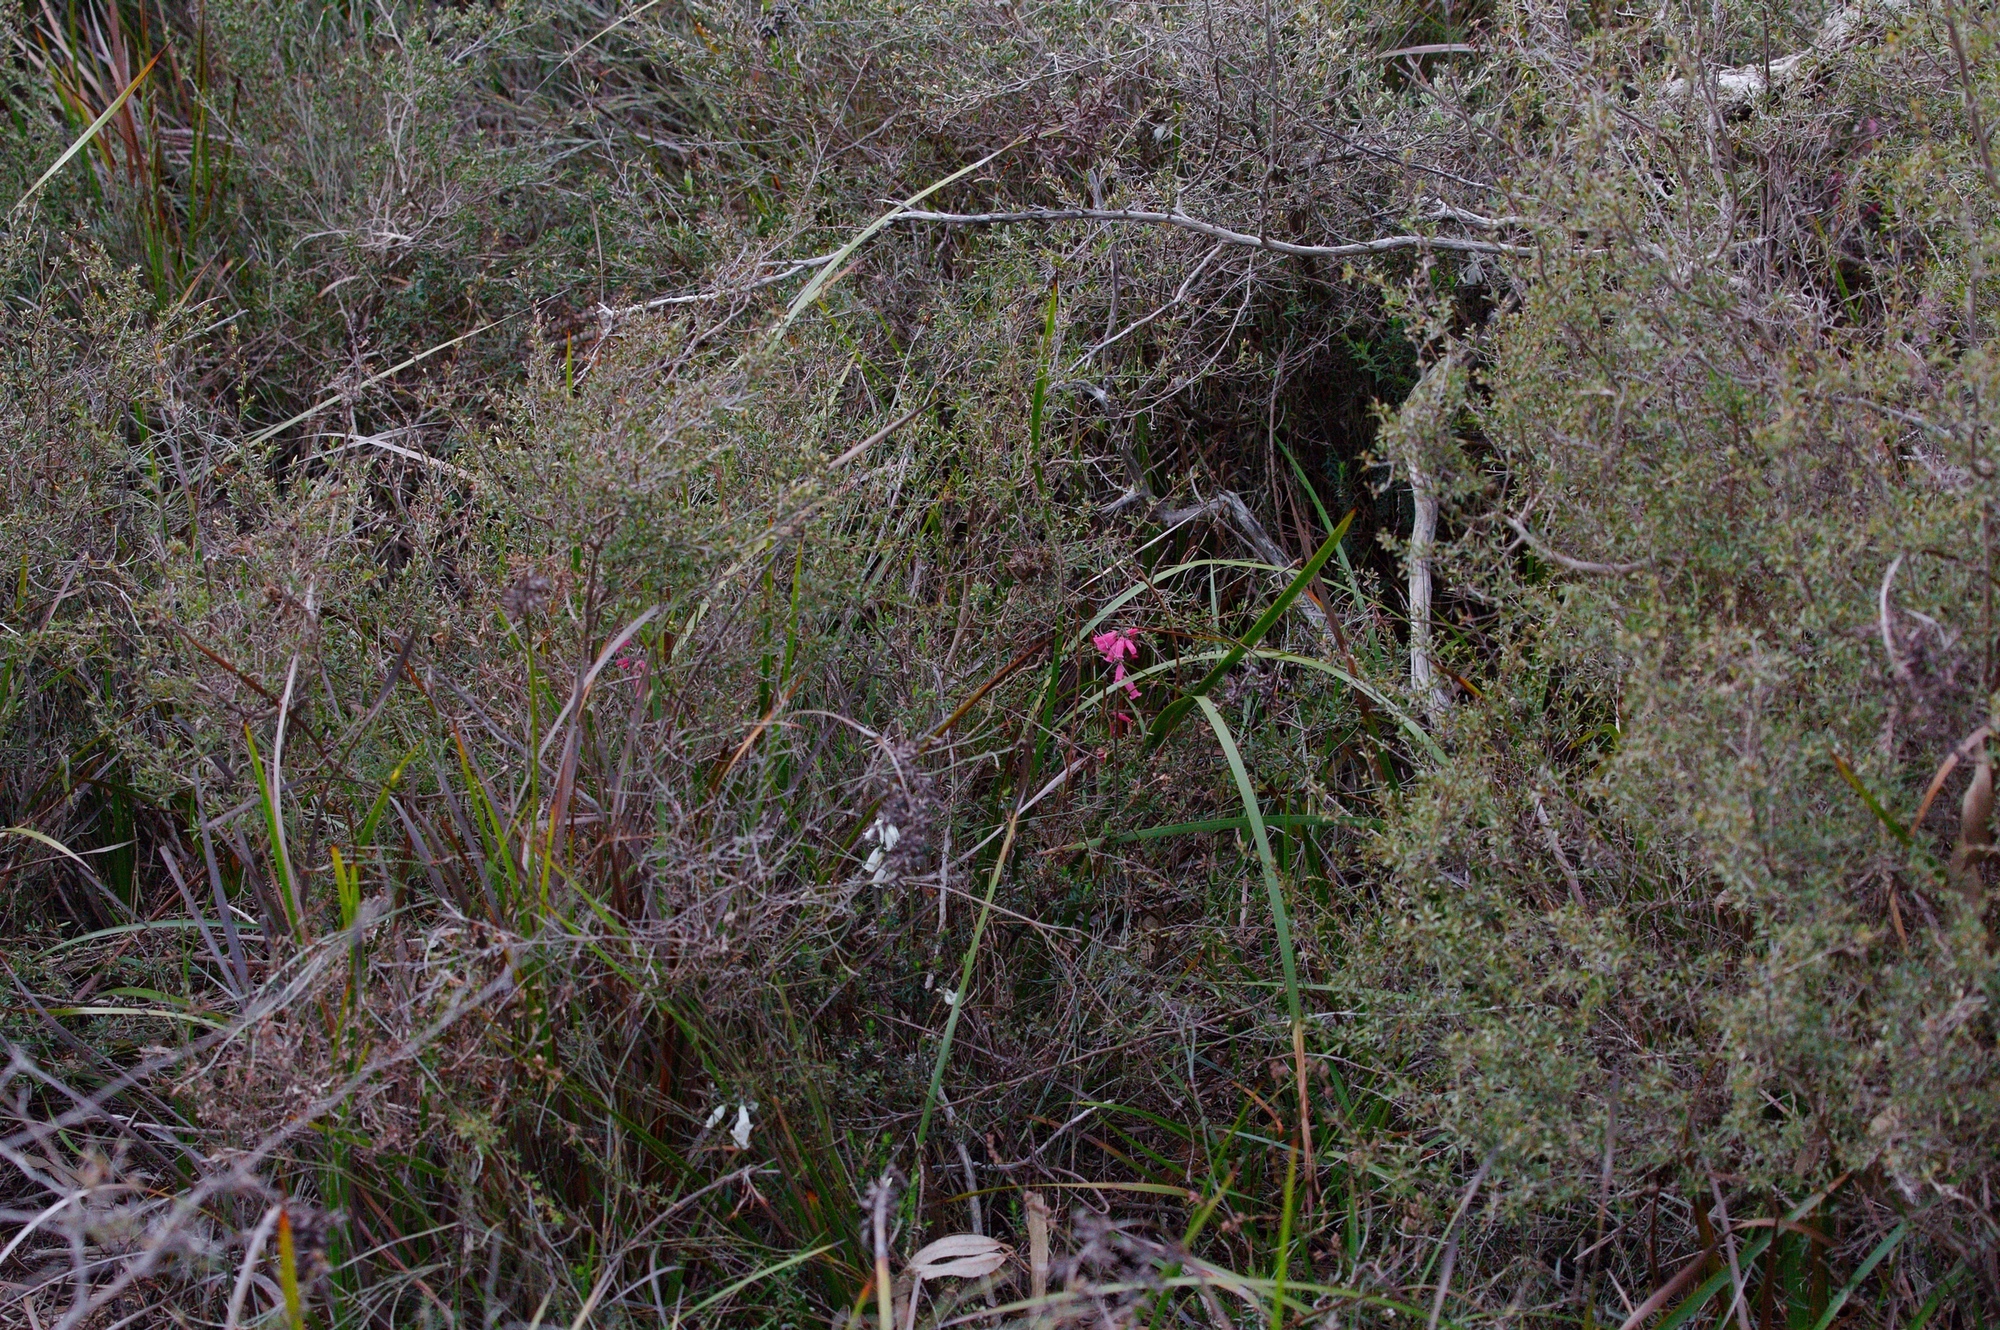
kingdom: Plantae
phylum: Tracheophyta
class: Magnoliopsida
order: Ericales
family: Ericaceae
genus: Epacris
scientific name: Epacris impressa
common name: Common-heath
